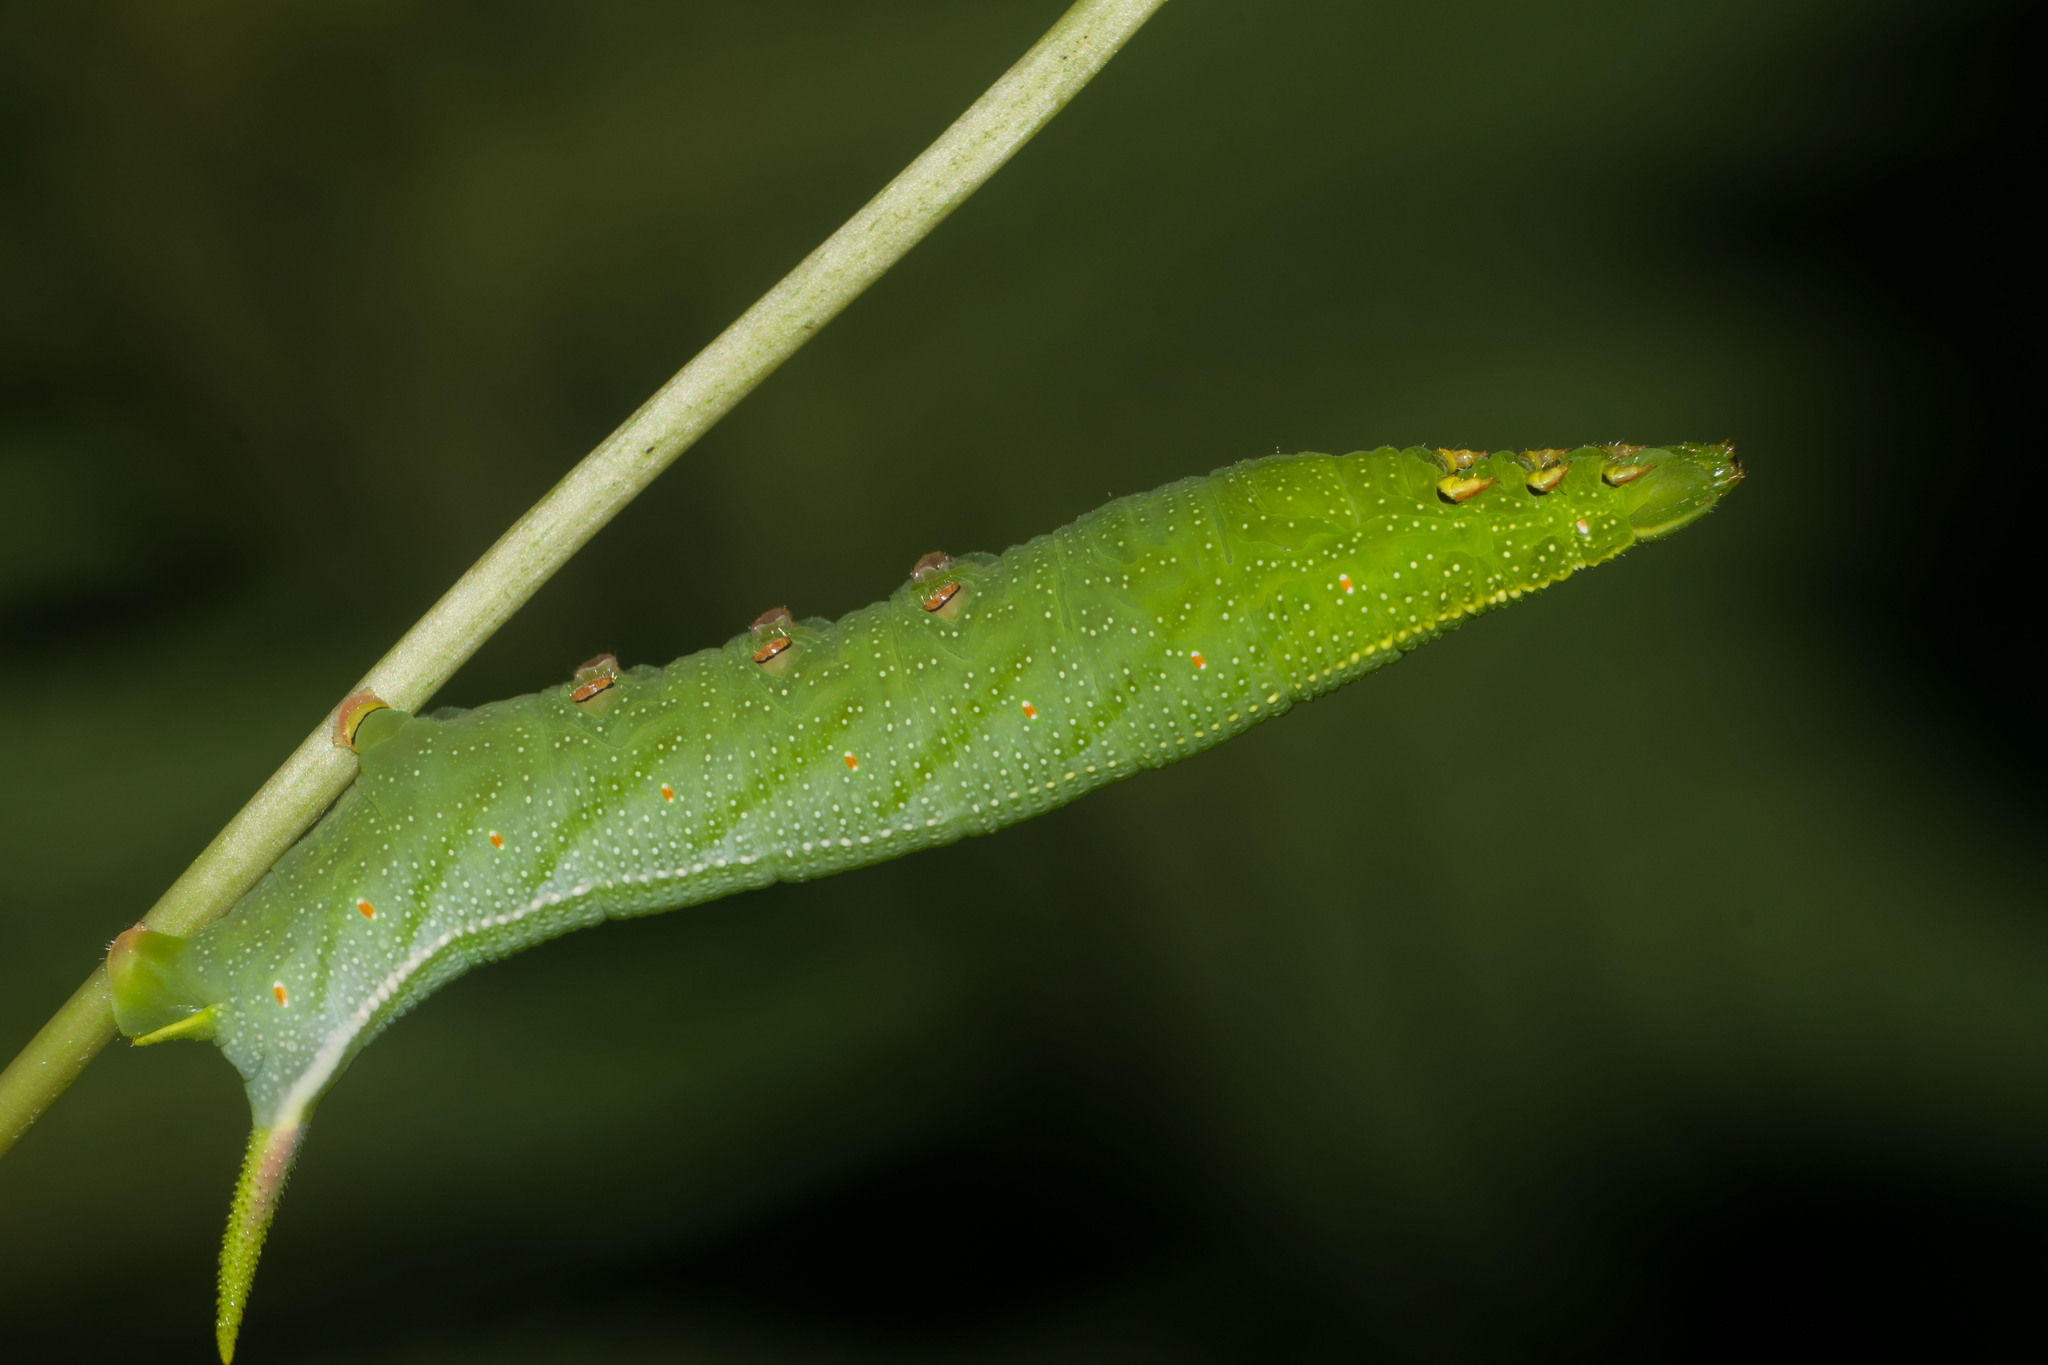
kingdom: Animalia
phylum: Arthropoda
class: Insecta
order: Lepidoptera
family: Sphingidae
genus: Macroglossum
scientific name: Macroglossum pyrrhosticta
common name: Hummingbird hawk moth
